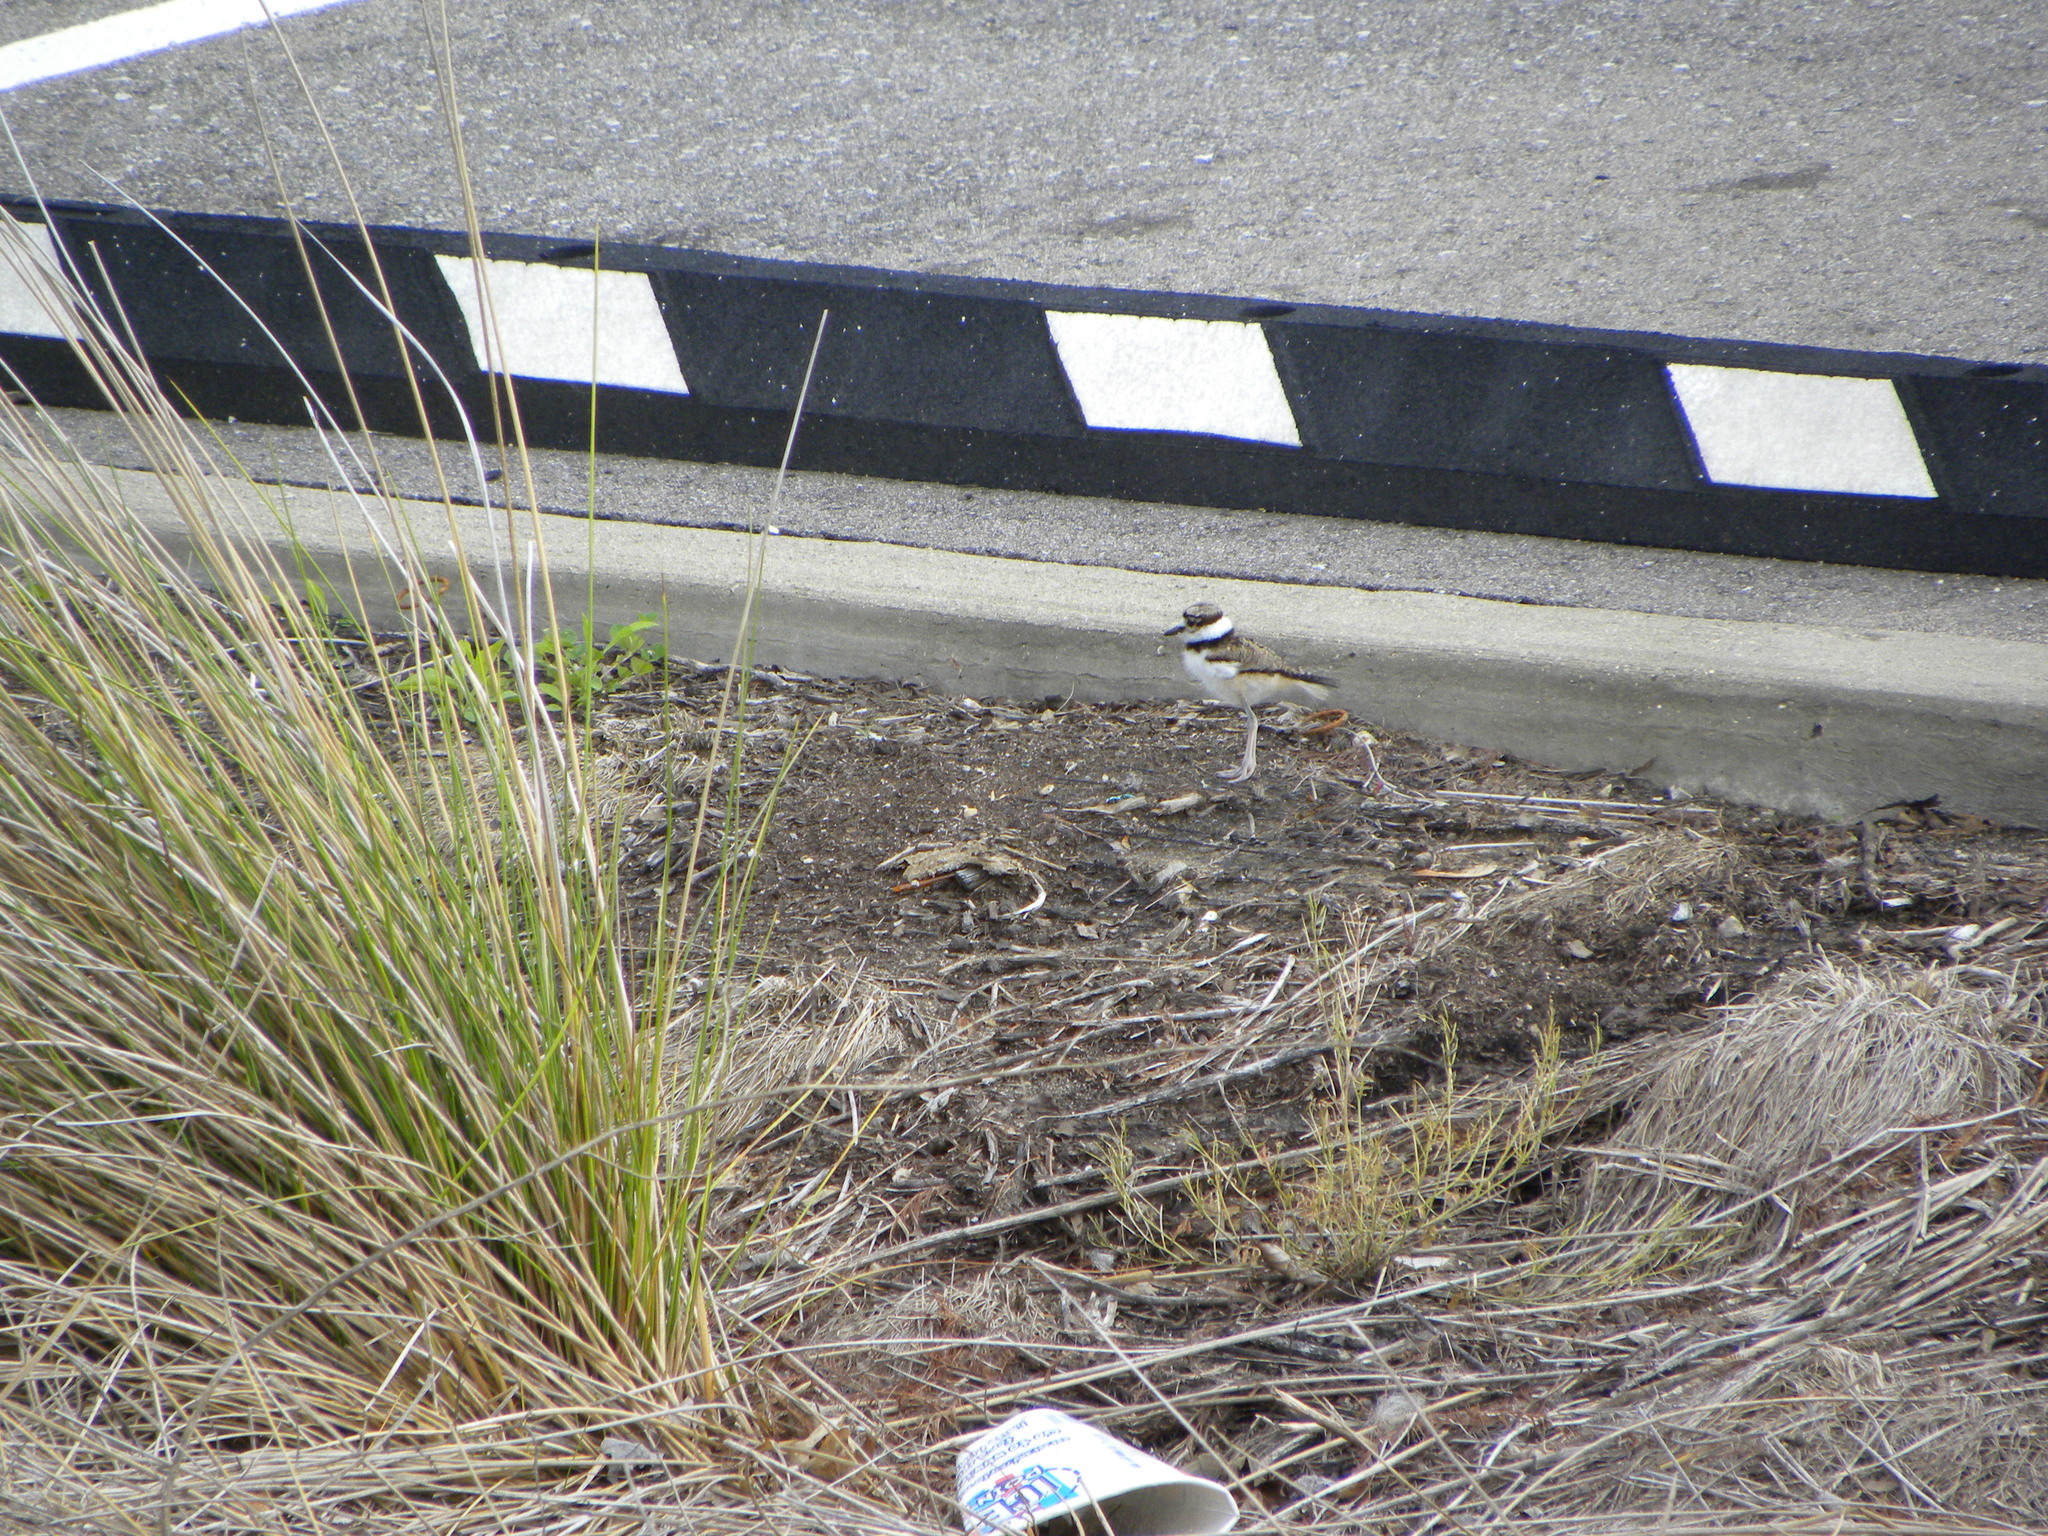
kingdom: Animalia
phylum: Chordata
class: Aves
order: Charadriiformes
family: Charadriidae
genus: Charadrius
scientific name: Charadrius vociferus
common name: Killdeer
